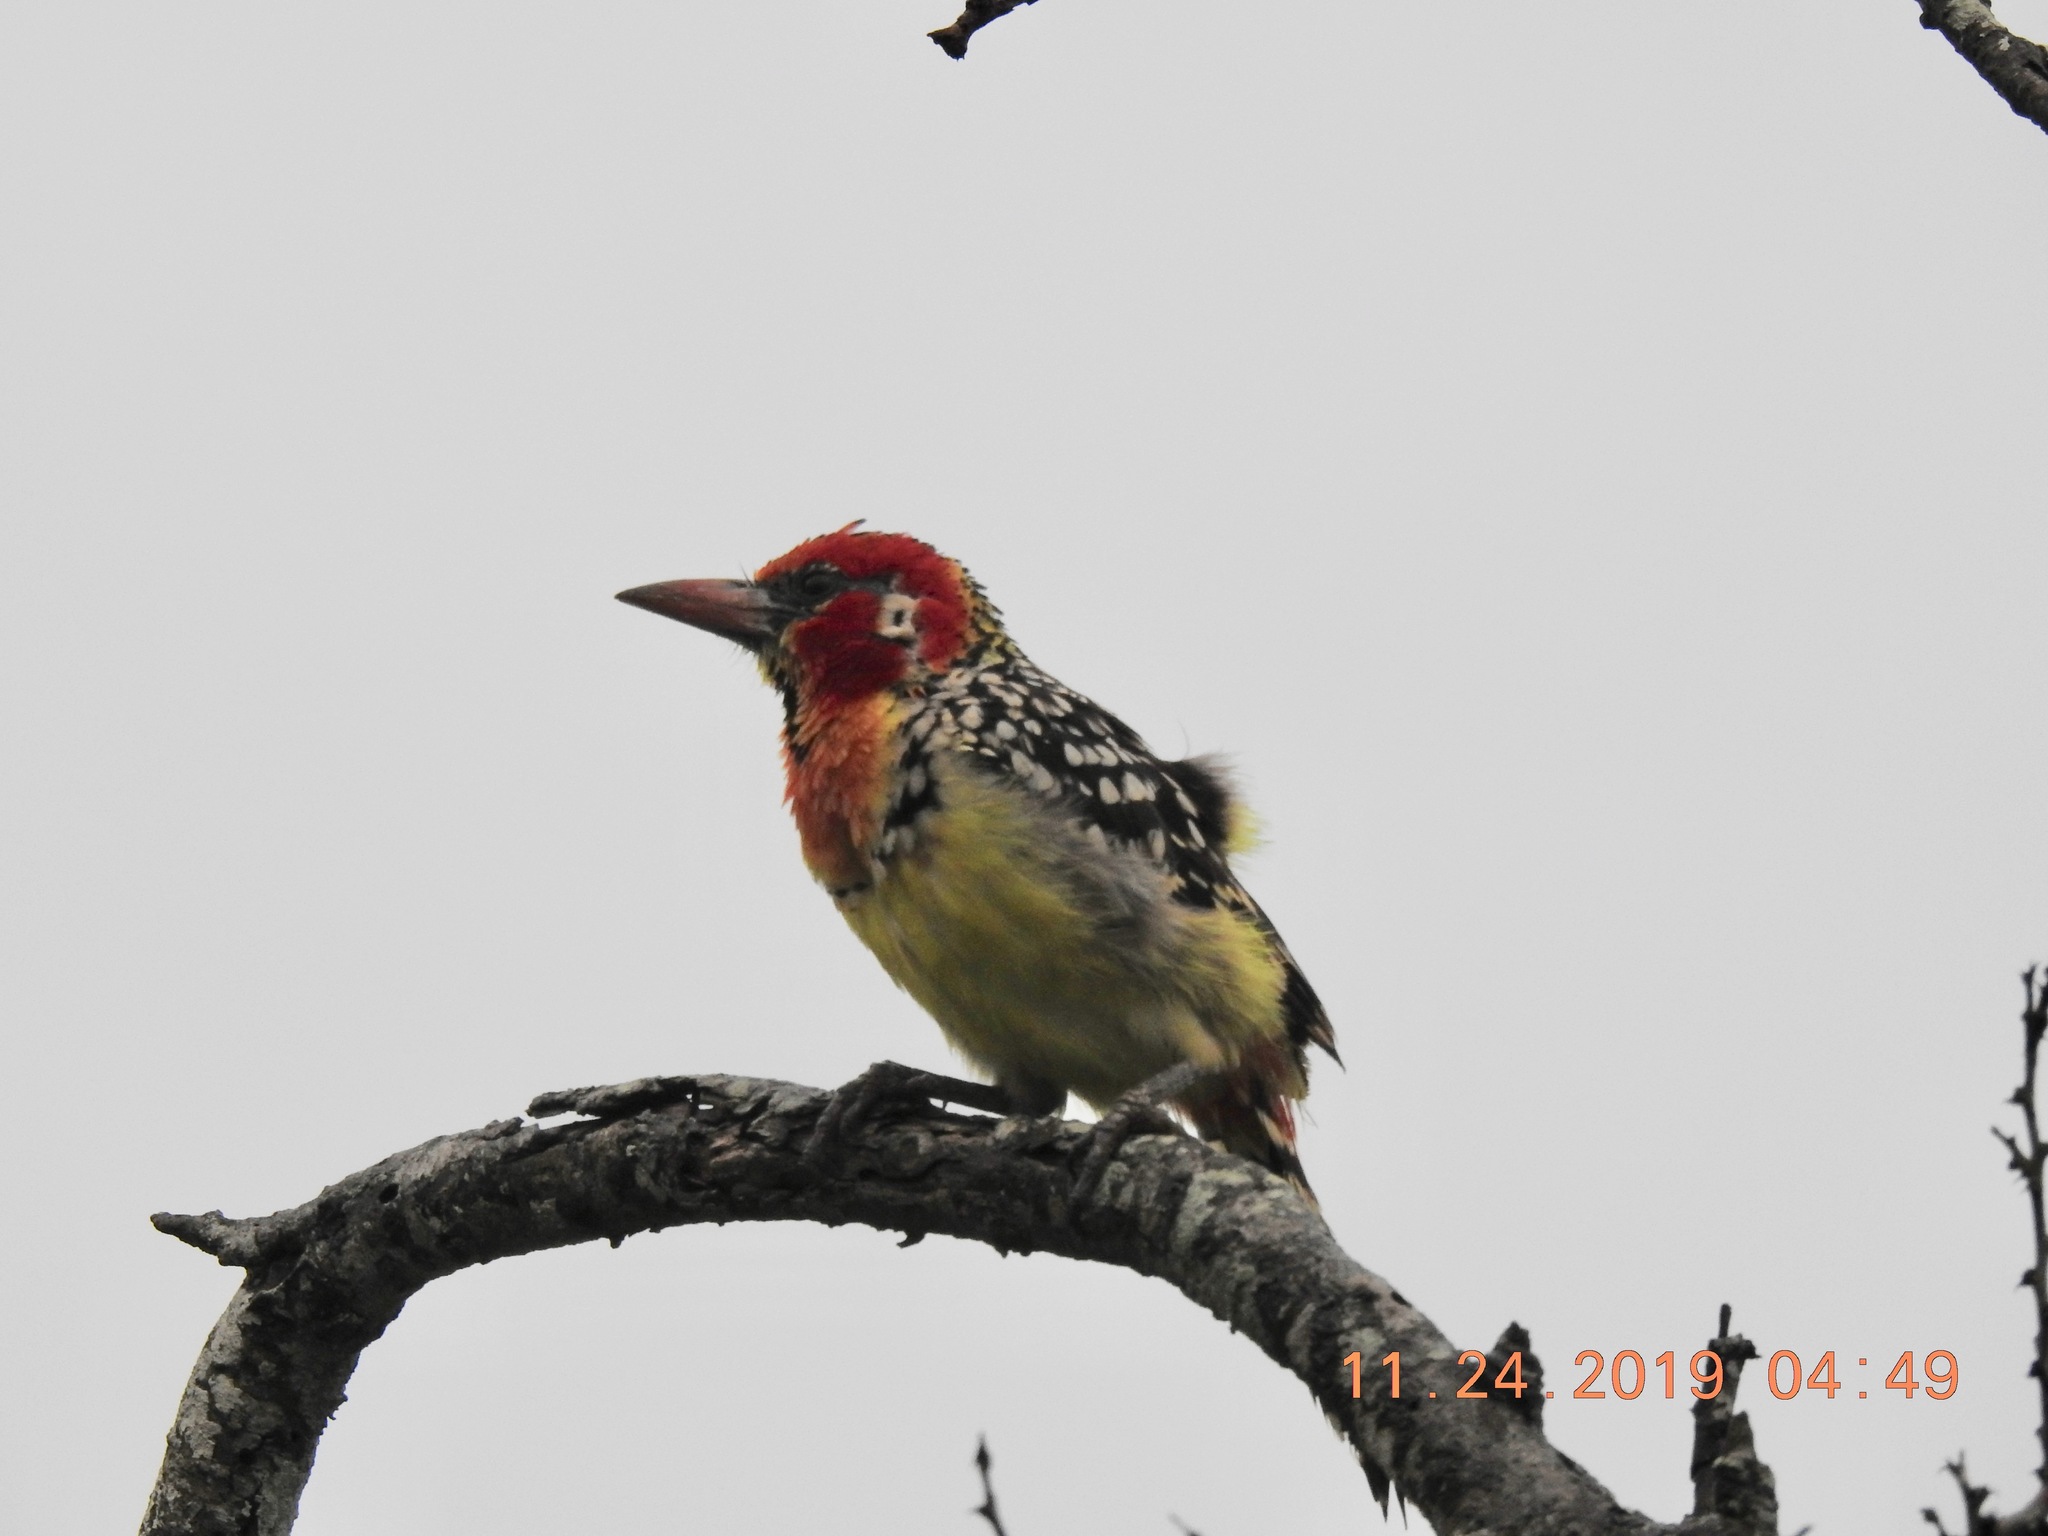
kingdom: Animalia
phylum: Chordata
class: Aves
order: Piciformes
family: Lybiidae
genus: Trachyphonus
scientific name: Trachyphonus erythrocephalus
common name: Red-and-yellow barbet
